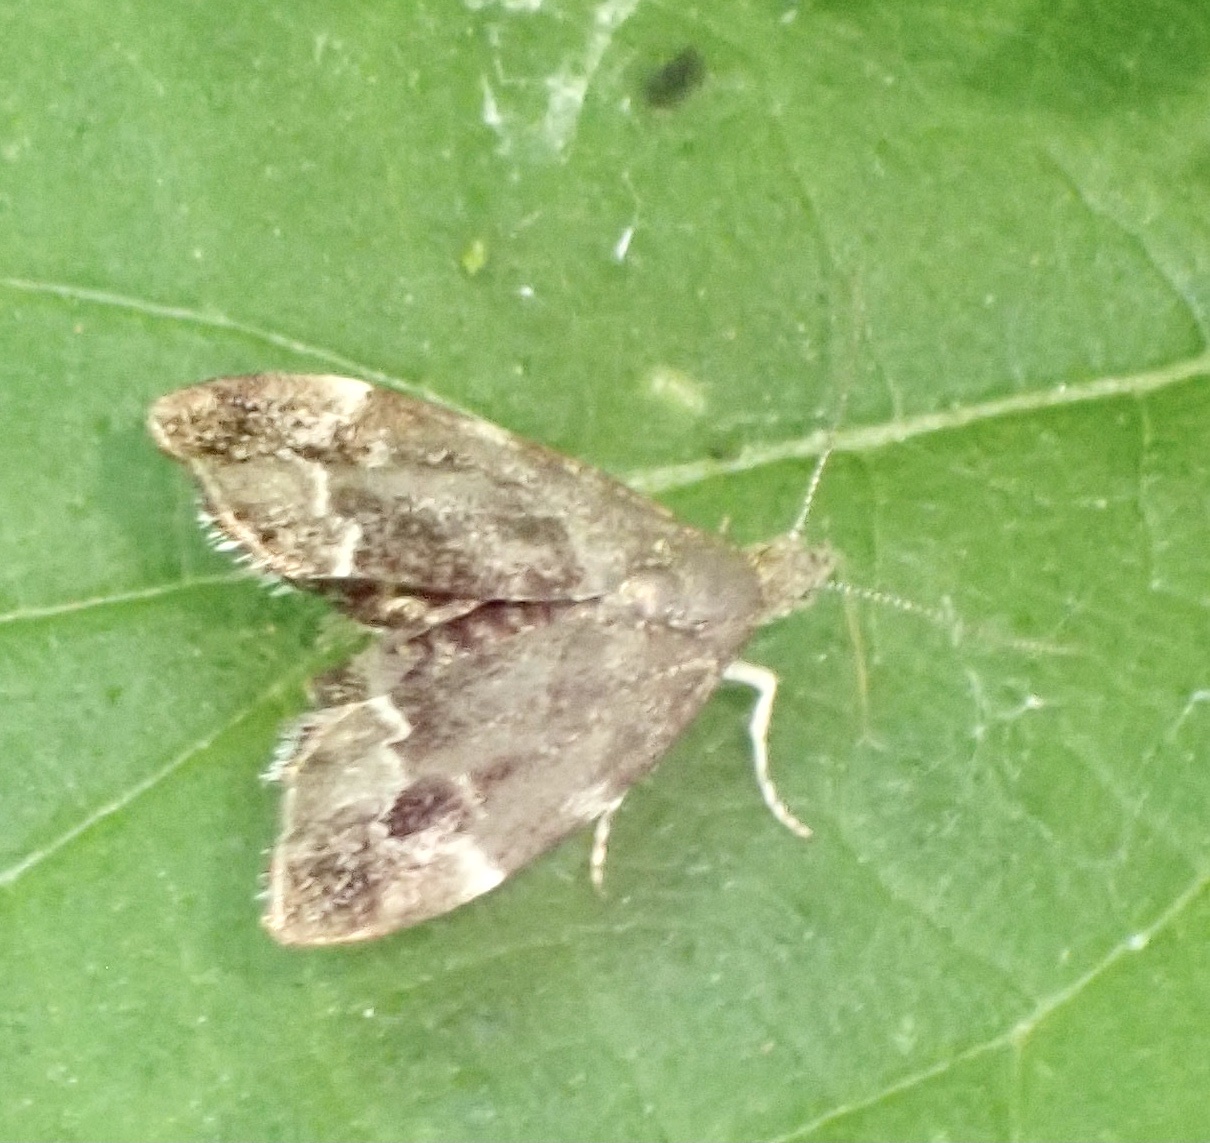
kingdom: Animalia
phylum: Arthropoda
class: Insecta
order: Lepidoptera
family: Choreutidae
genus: Anthophila
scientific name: Anthophila fabriciana
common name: Nettle-tap
